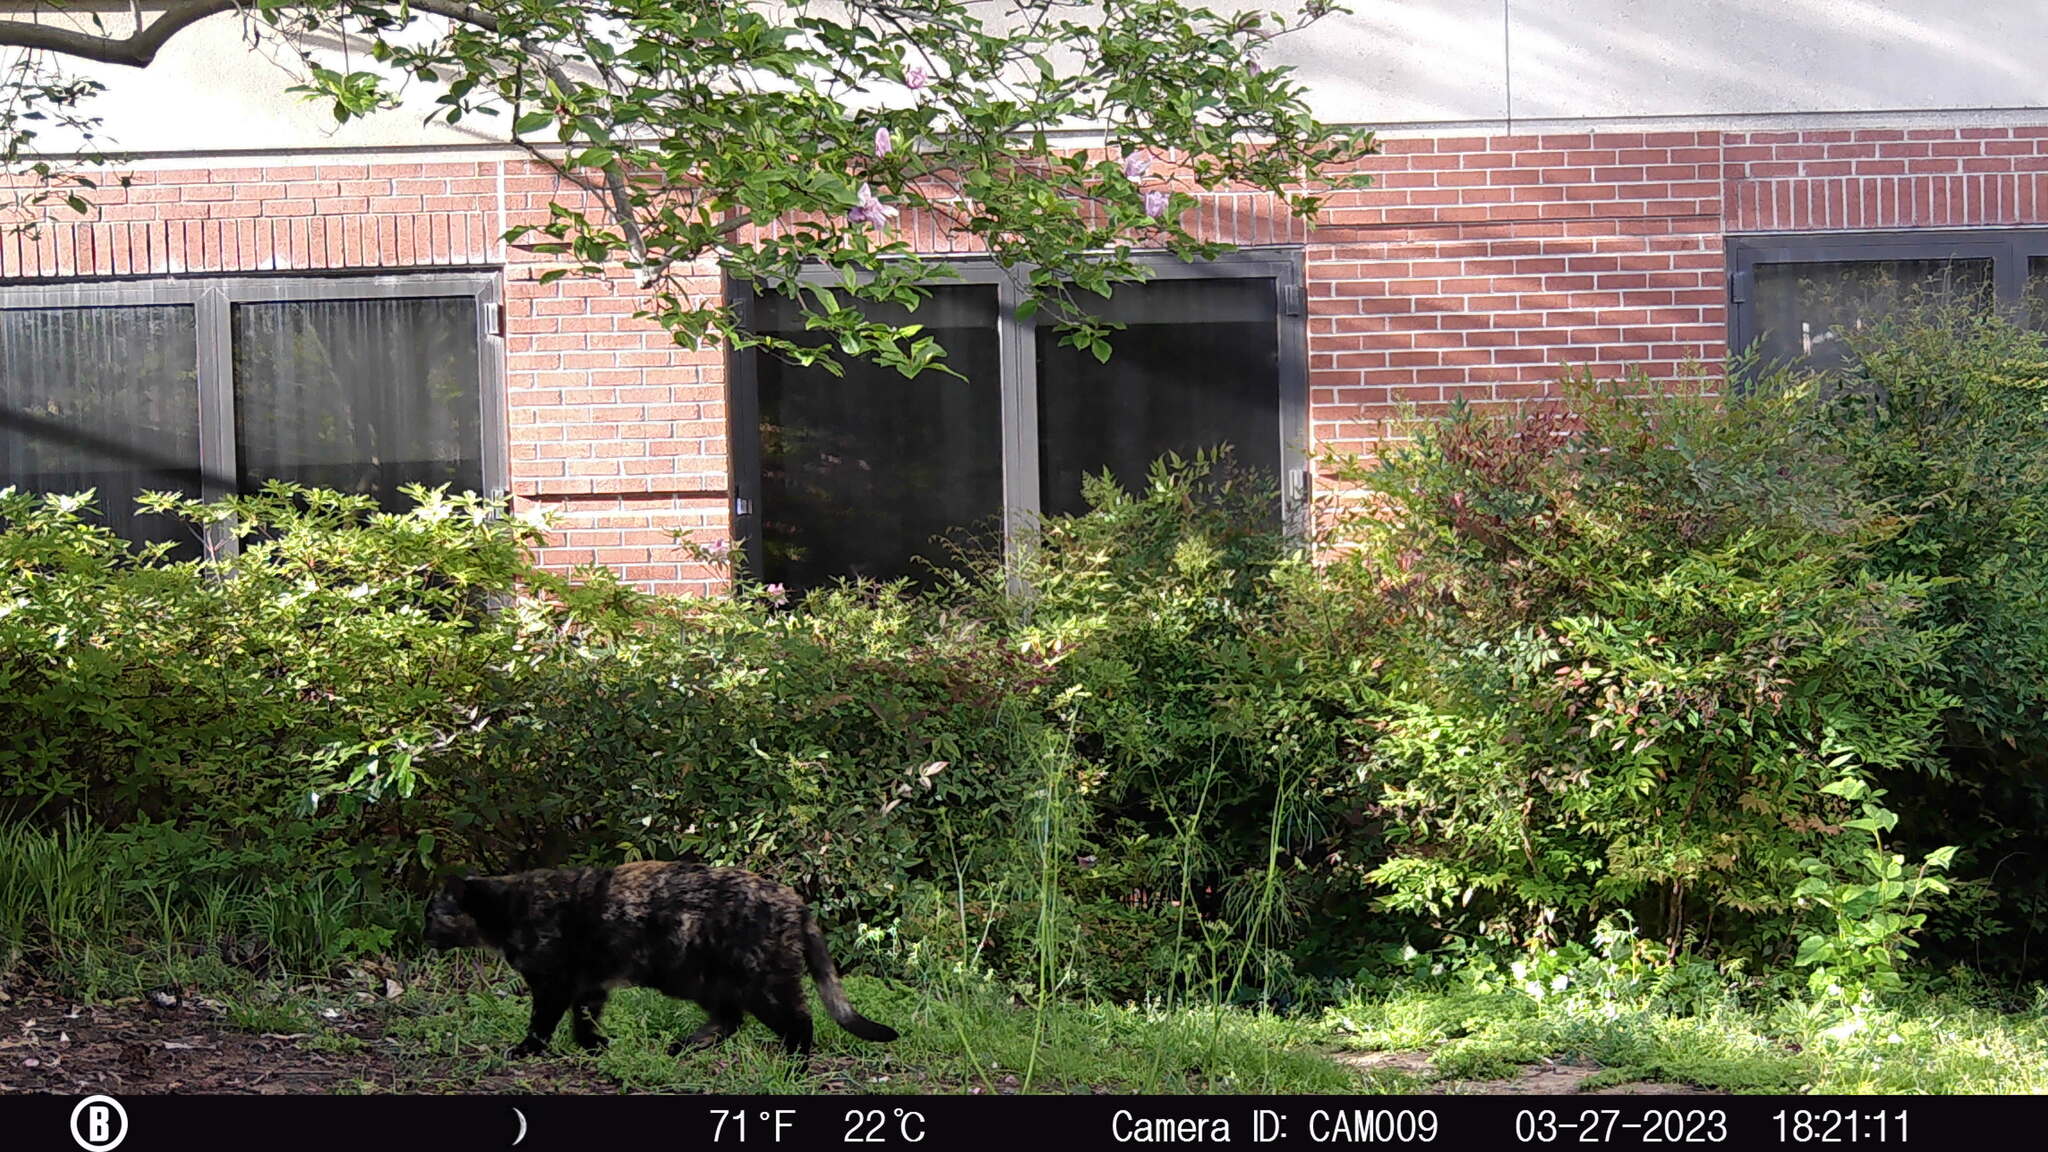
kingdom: Animalia
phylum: Chordata
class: Mammalia
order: Carnivora
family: Felidae
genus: Felis
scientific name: Felis catus
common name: Domestic cat
